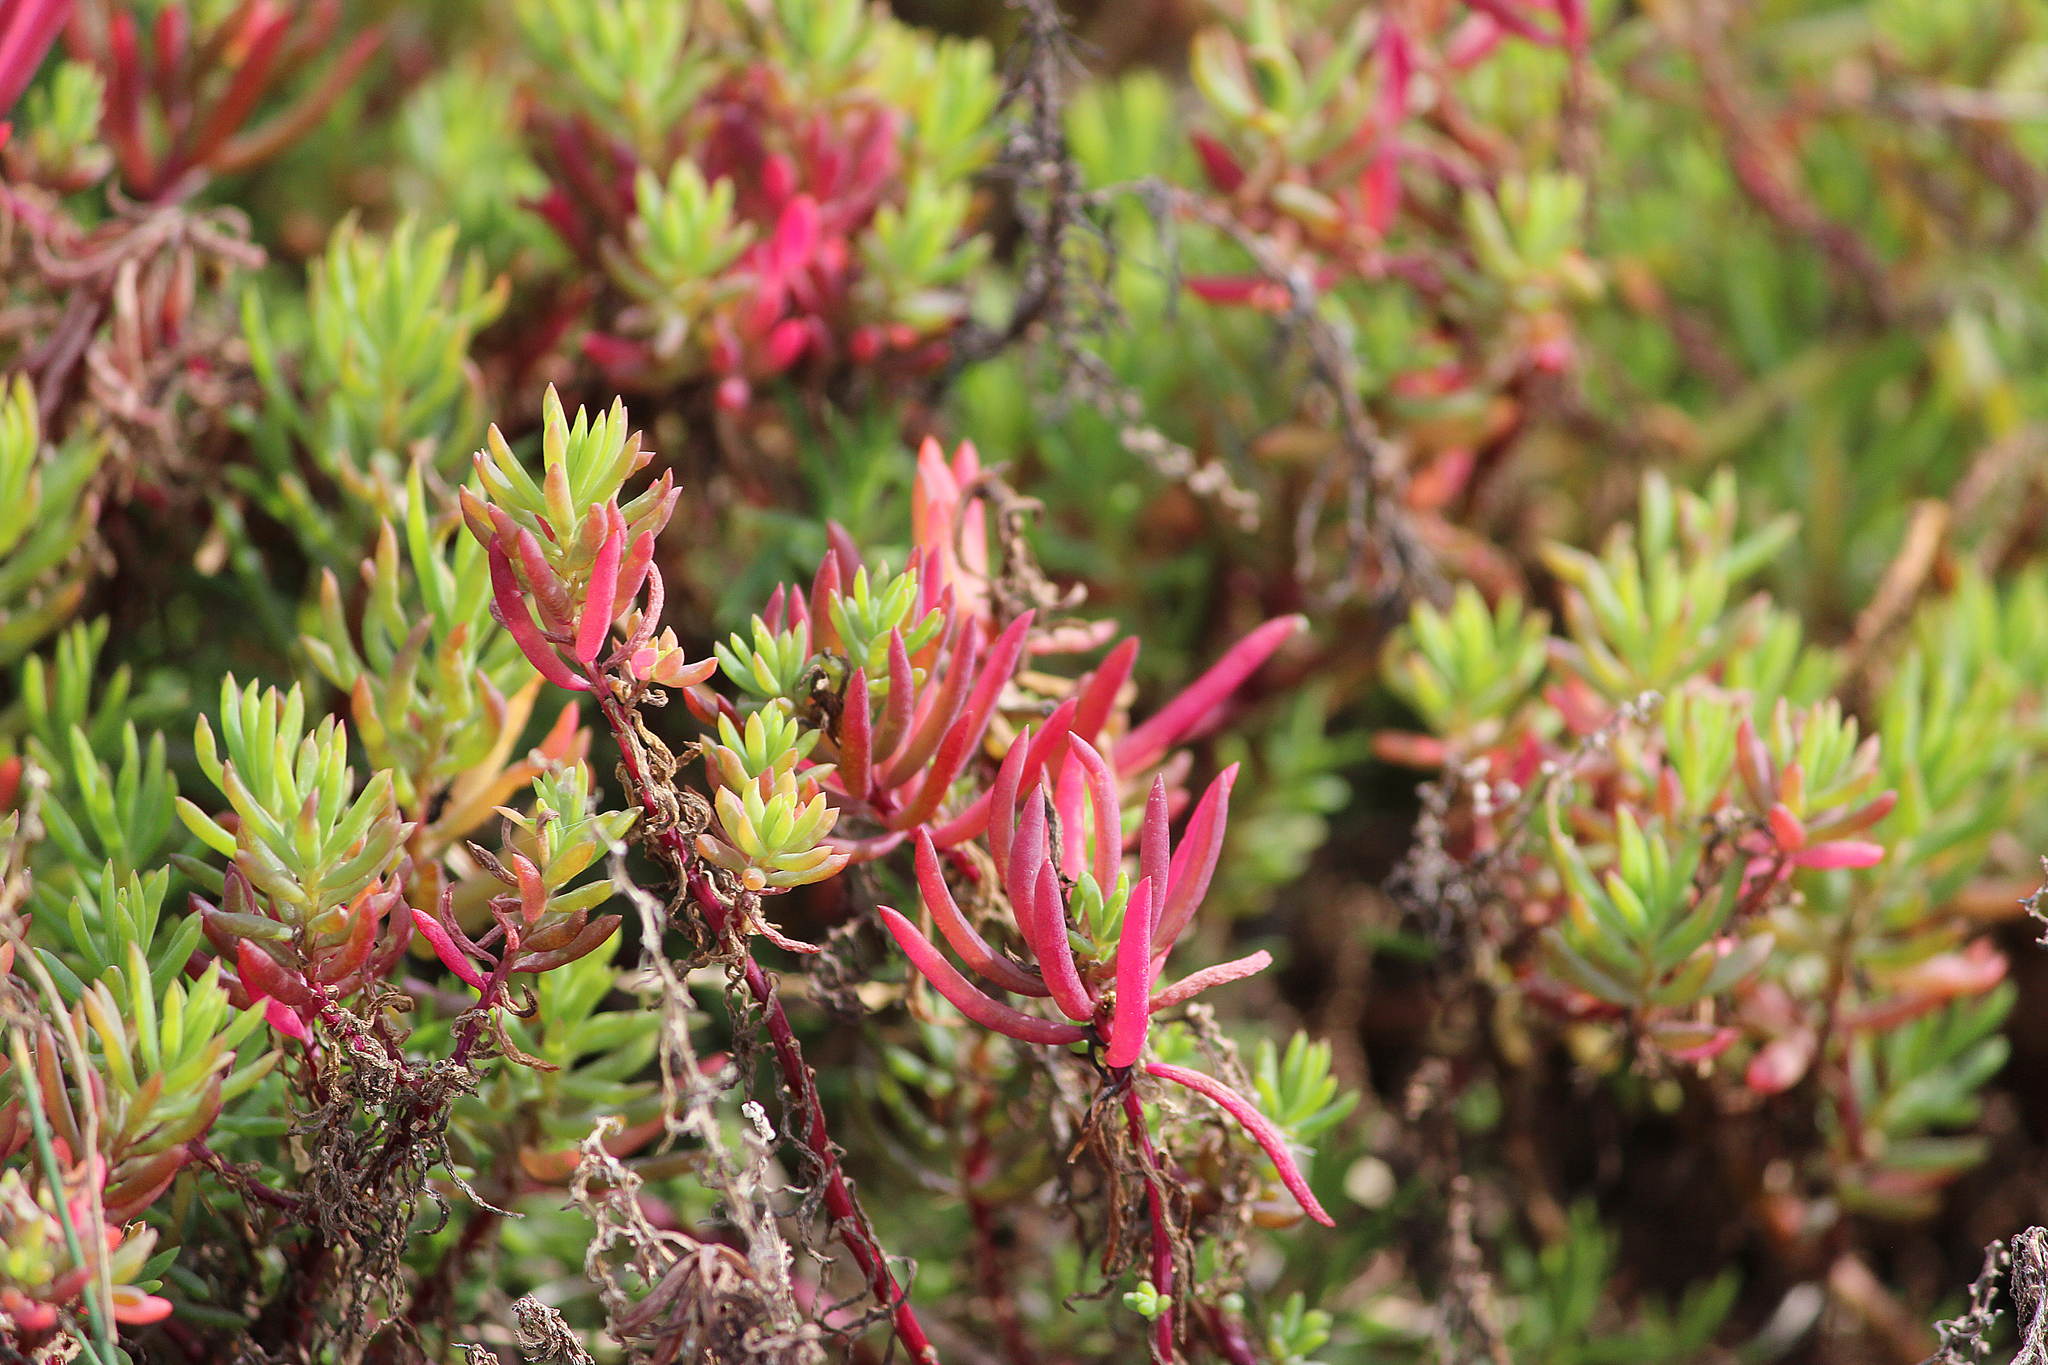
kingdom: Plantae
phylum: Tracheophyta
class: Magnoliopsida
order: Caryophyllales
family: Amaranthaceae
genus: Suaeda
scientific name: Suaeda australis
